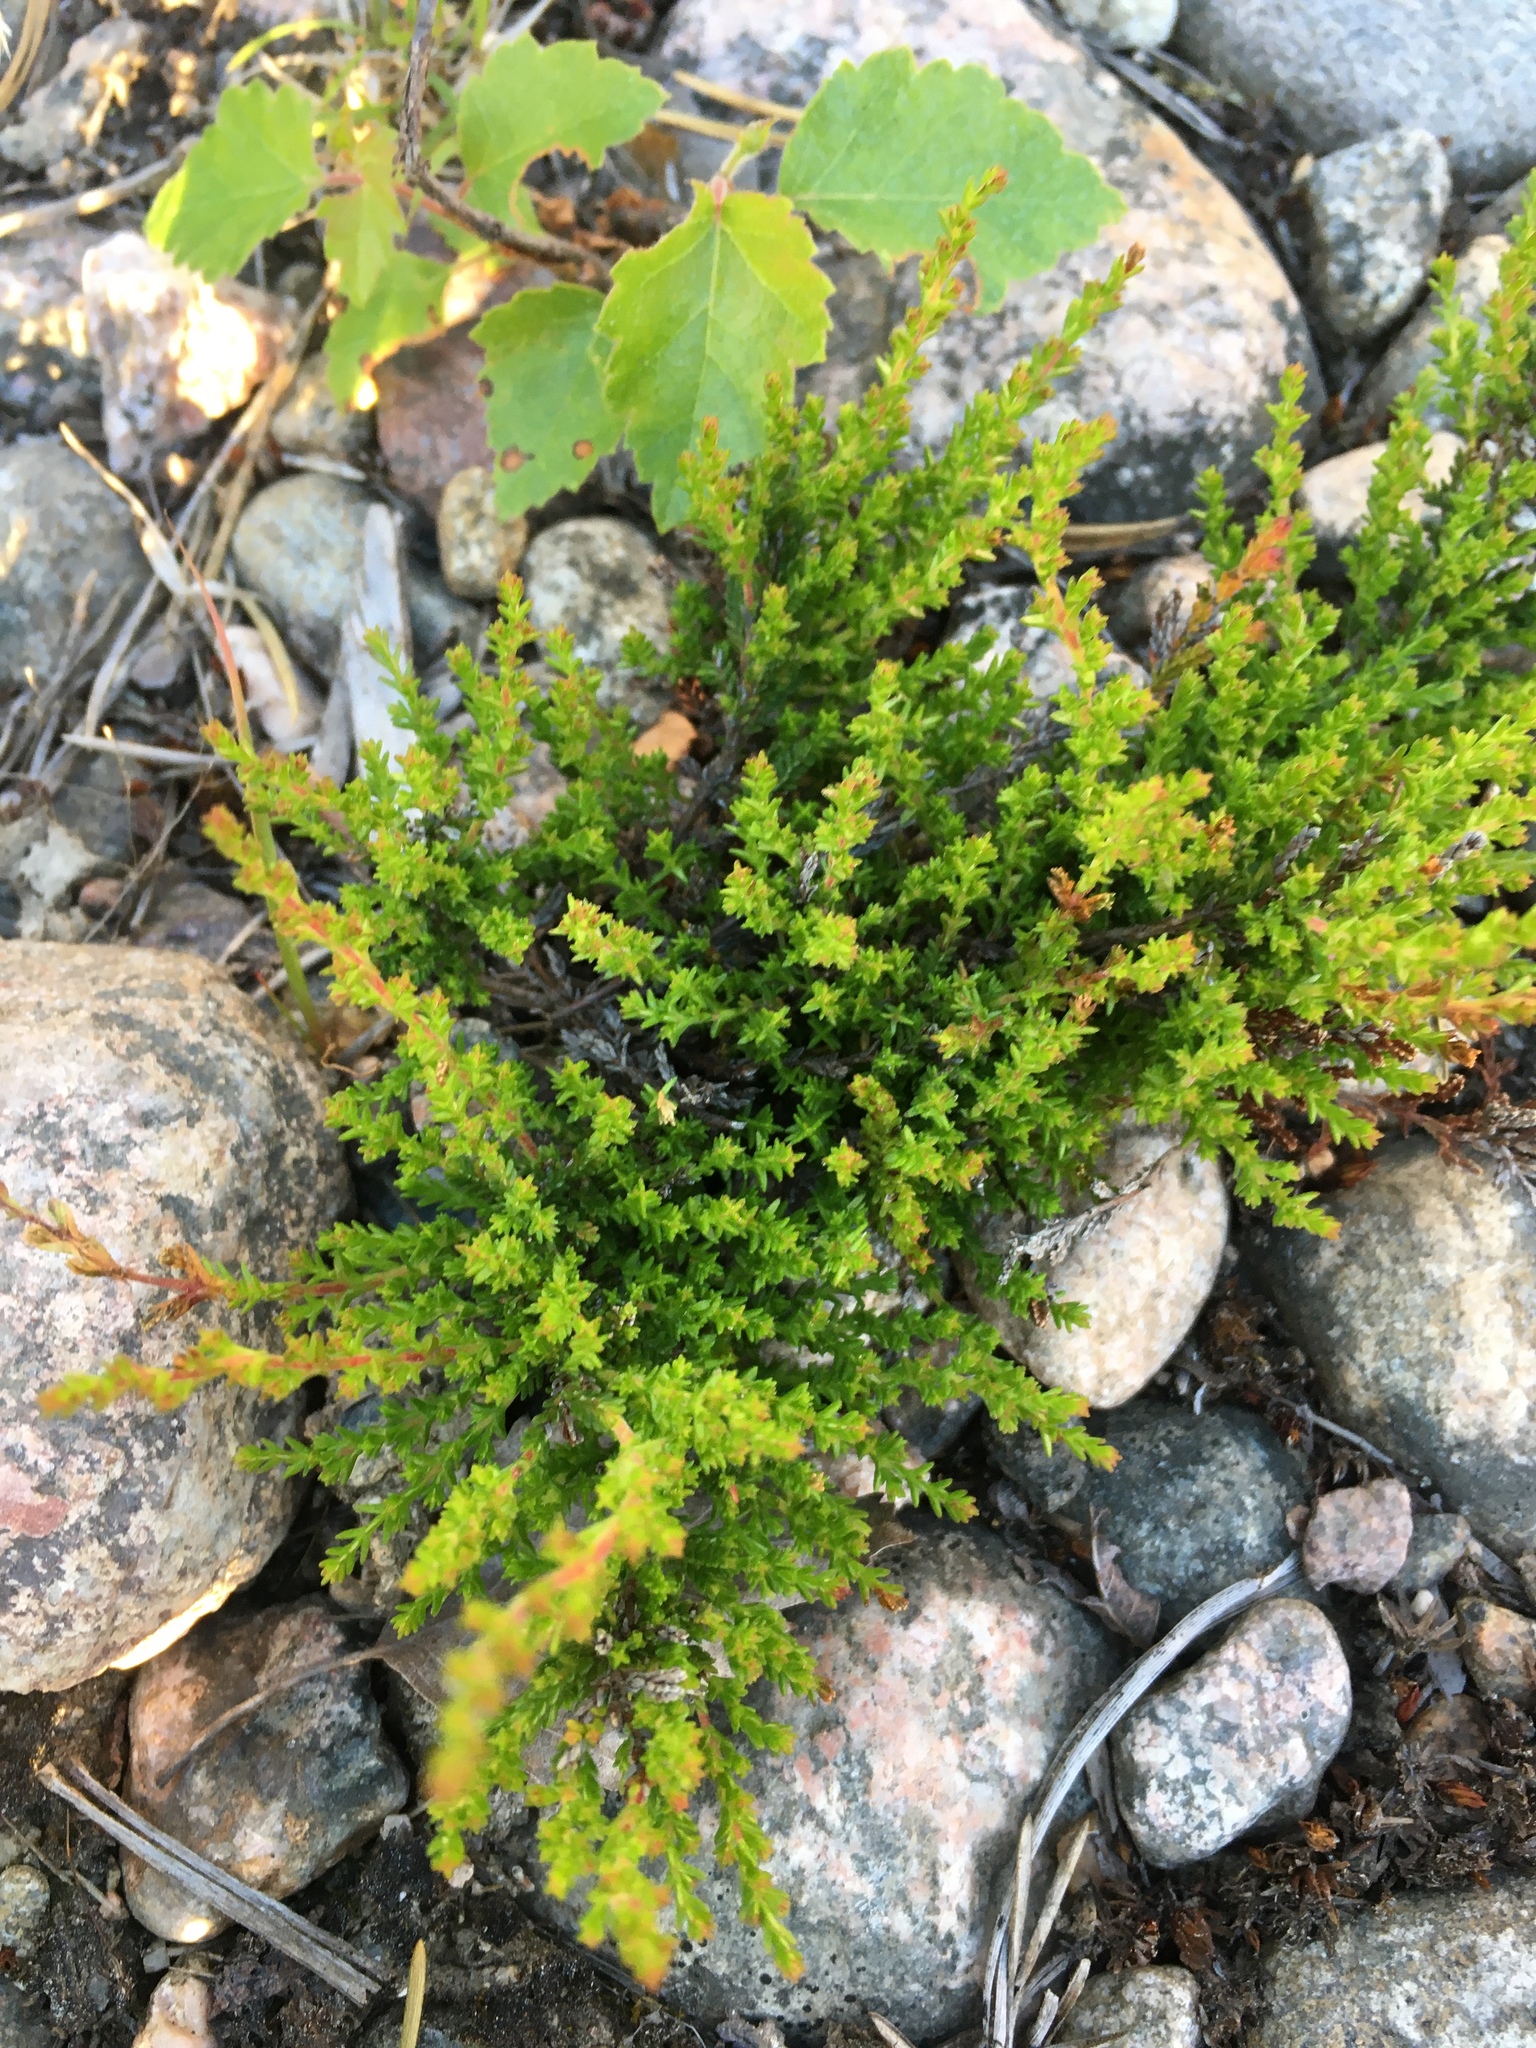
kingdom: Plantae
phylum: Tracheophyta
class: Magnoliopsida
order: Ericales
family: Ericaceae
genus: Calluna
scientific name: Calluna vulgaris
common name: Heather
